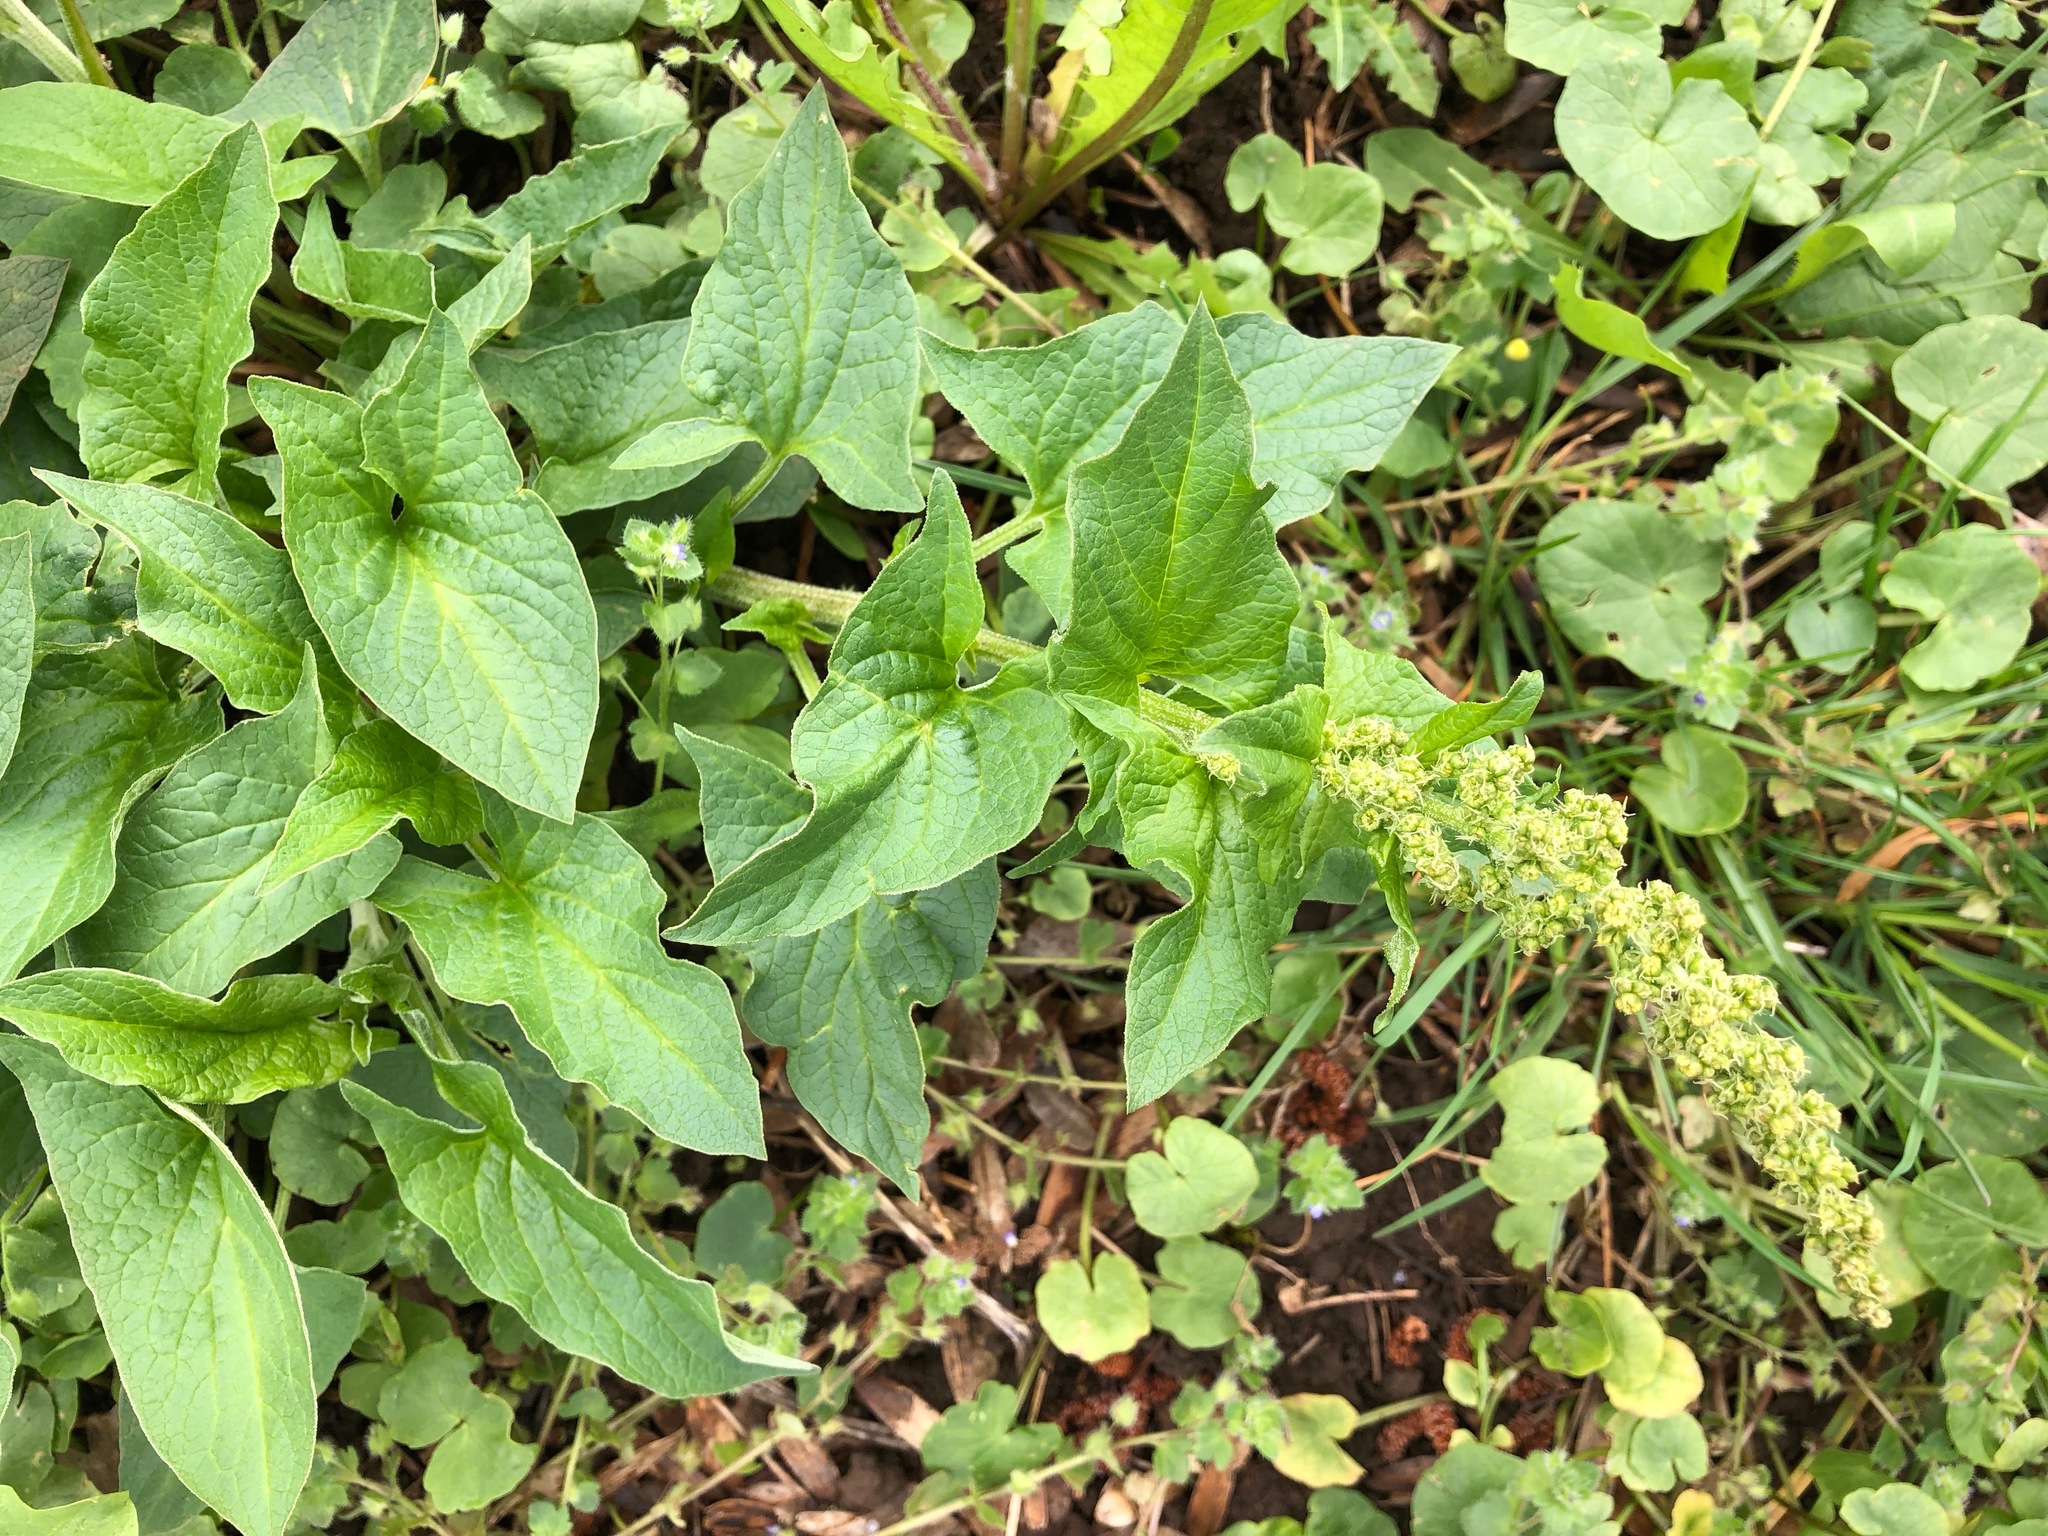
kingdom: Plantae
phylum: Tracheophyta
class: Magnoliopsida
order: Caryophyllales
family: Amaranthaceae
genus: Blitum
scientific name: Blitum bonus-henricus
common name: Good king henry
